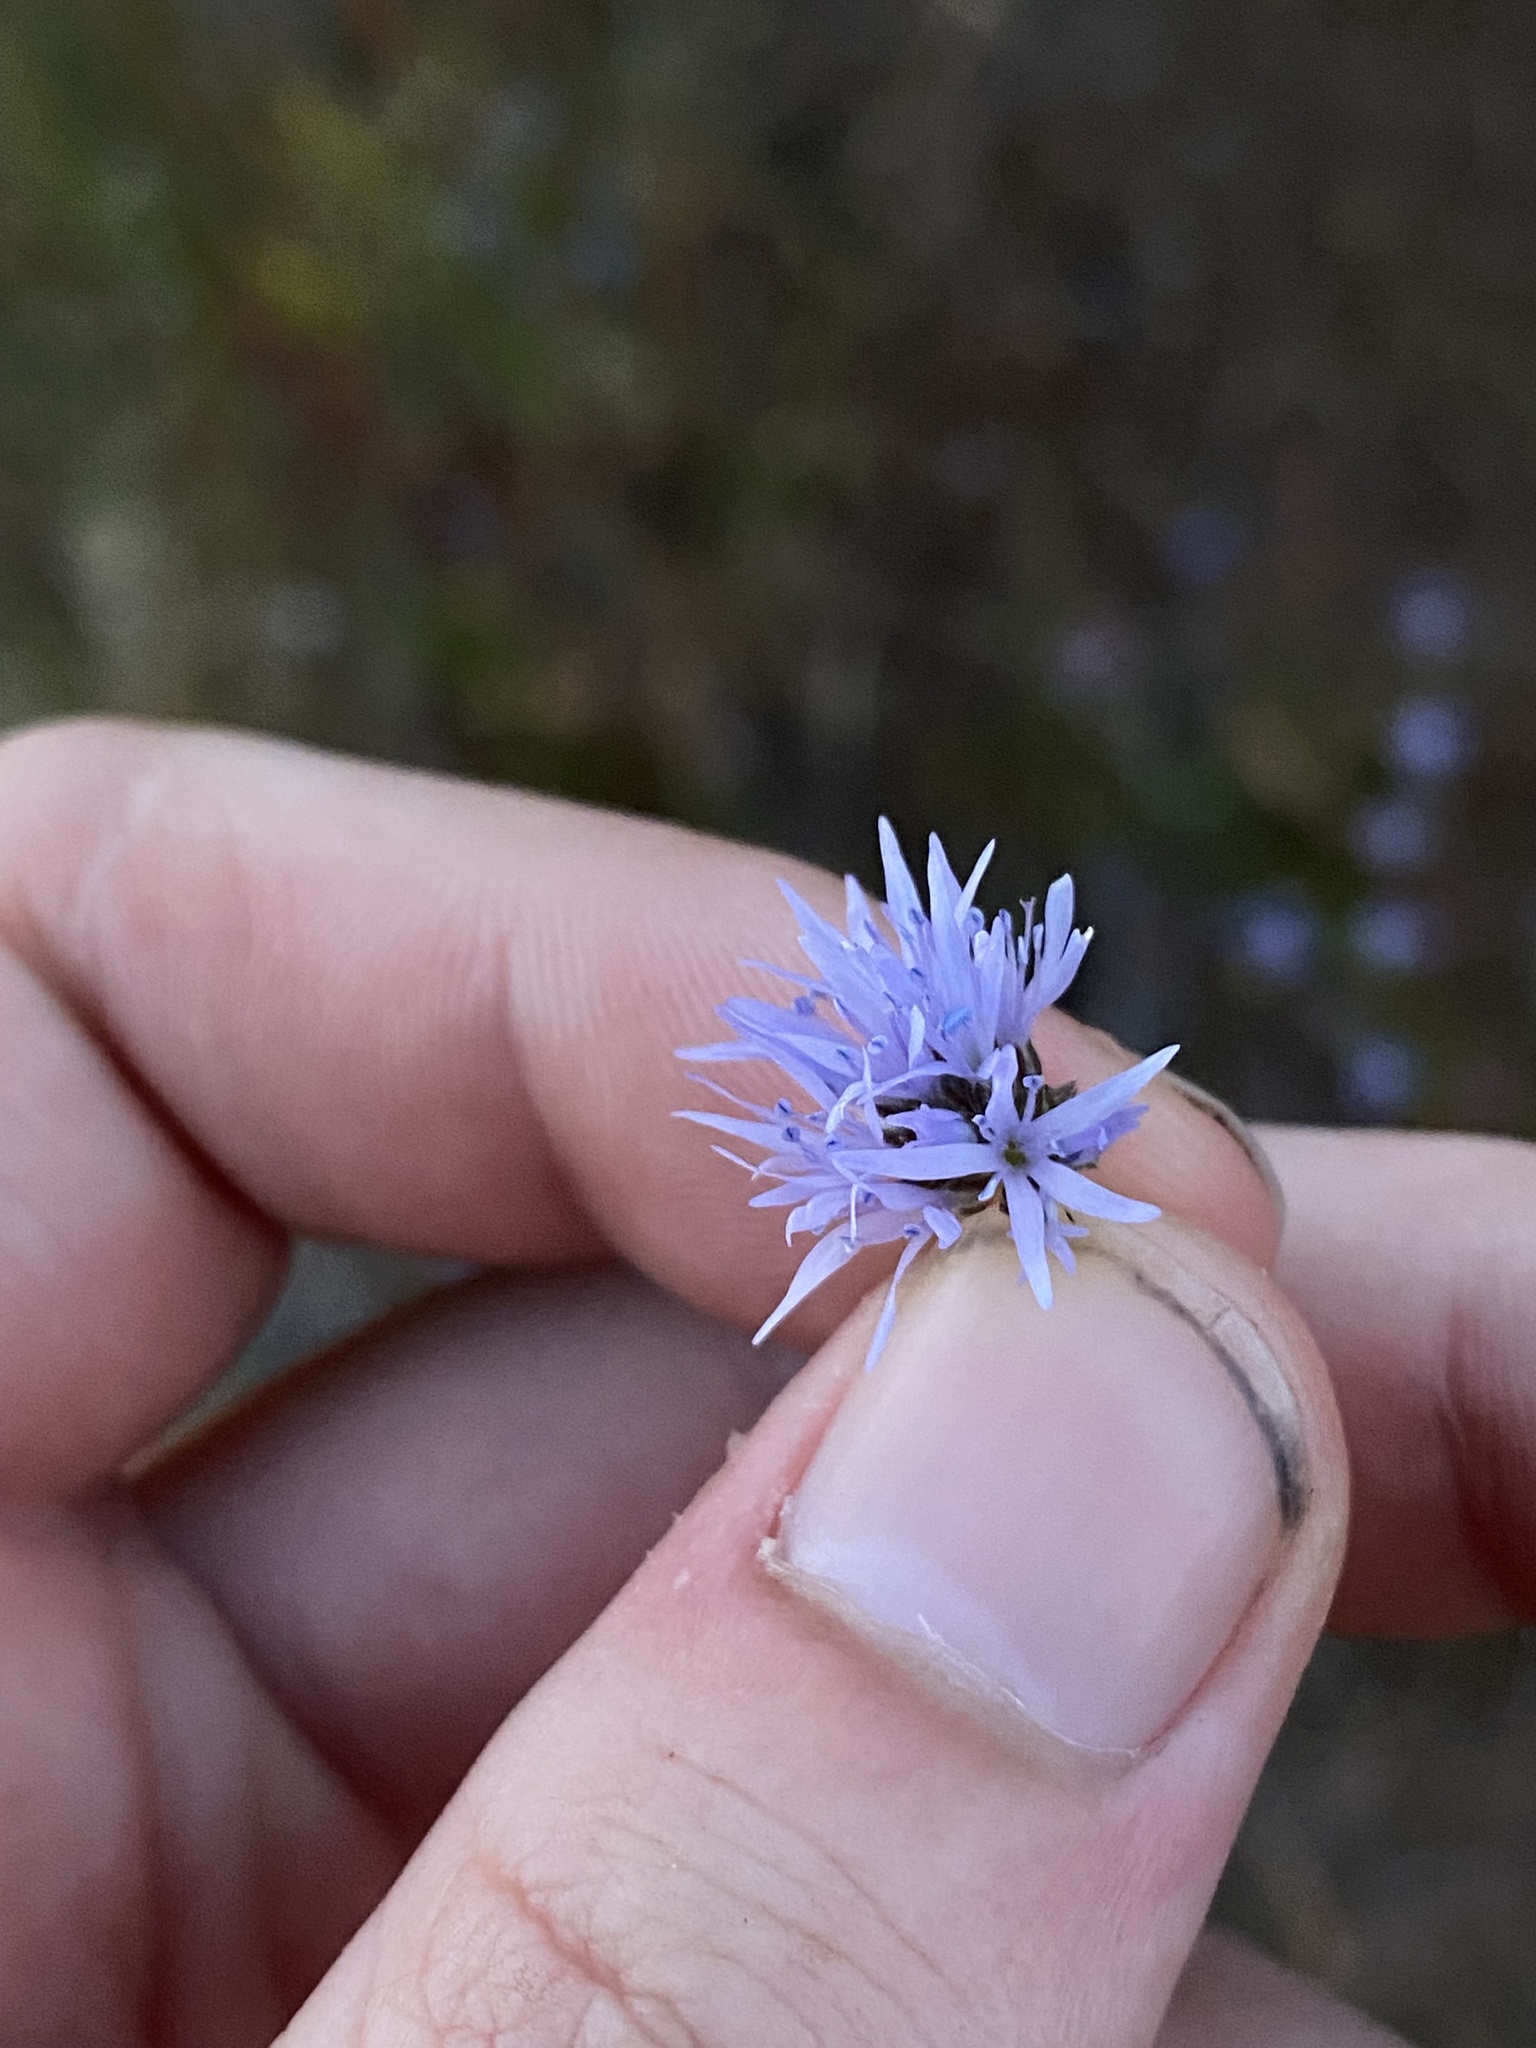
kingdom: Plantae
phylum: Tracheophyta
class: Magnoliopsida
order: Ericales
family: Polemoniaceae
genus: Gilia
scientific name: Gilia capitata
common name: Bluehead gilia
